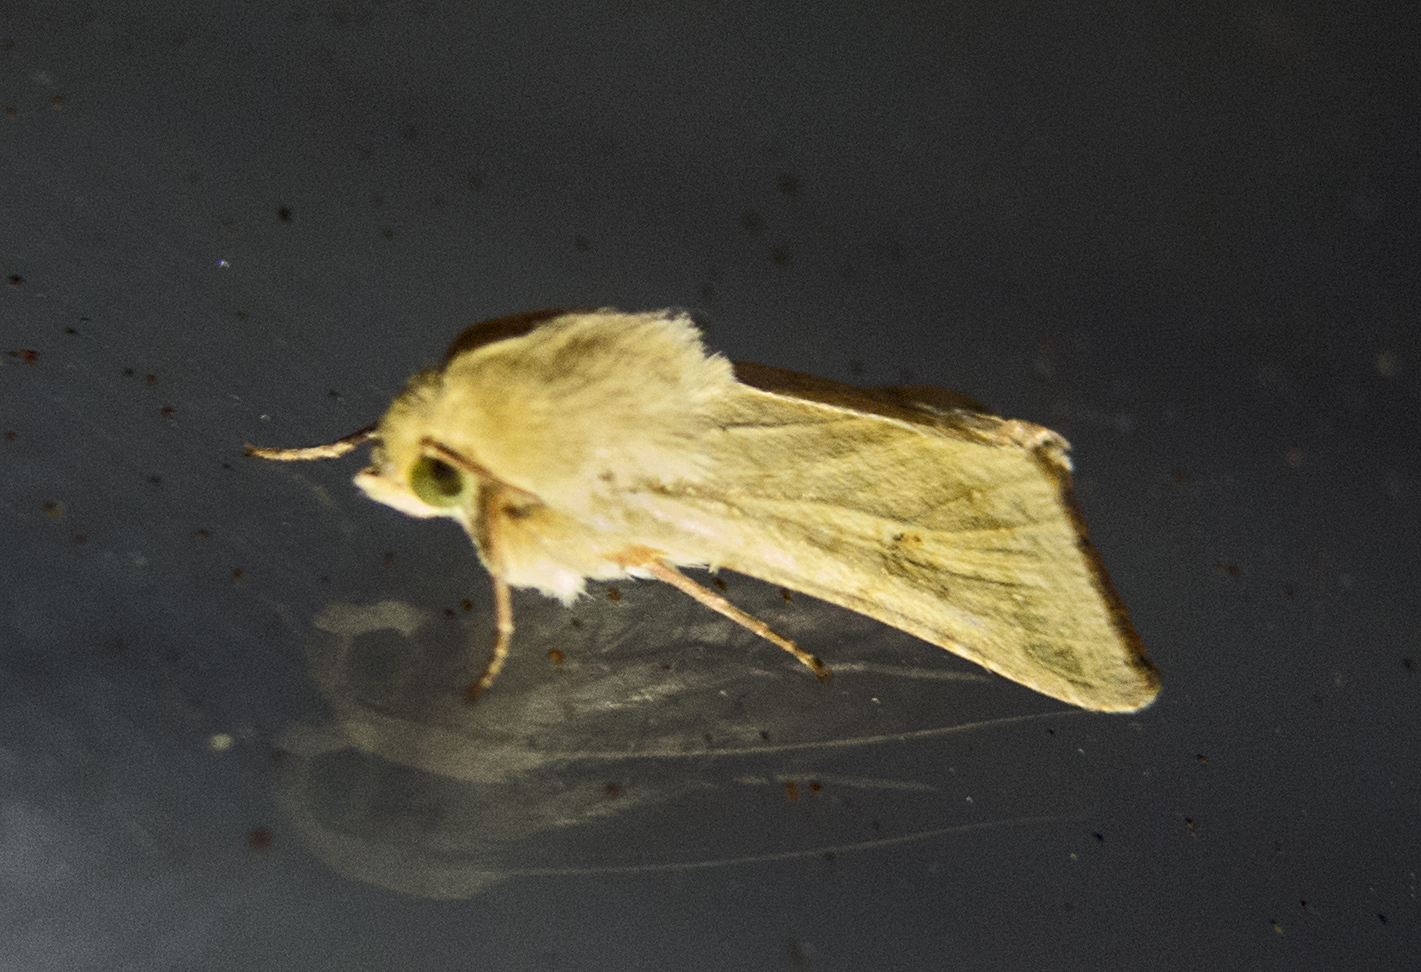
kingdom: Animalia
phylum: Arthropoda
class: Insecta
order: Lepidoptera
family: Noctuidae
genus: Helicoverpa
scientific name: Helicoverpa armigera
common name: Cotton bollworm
